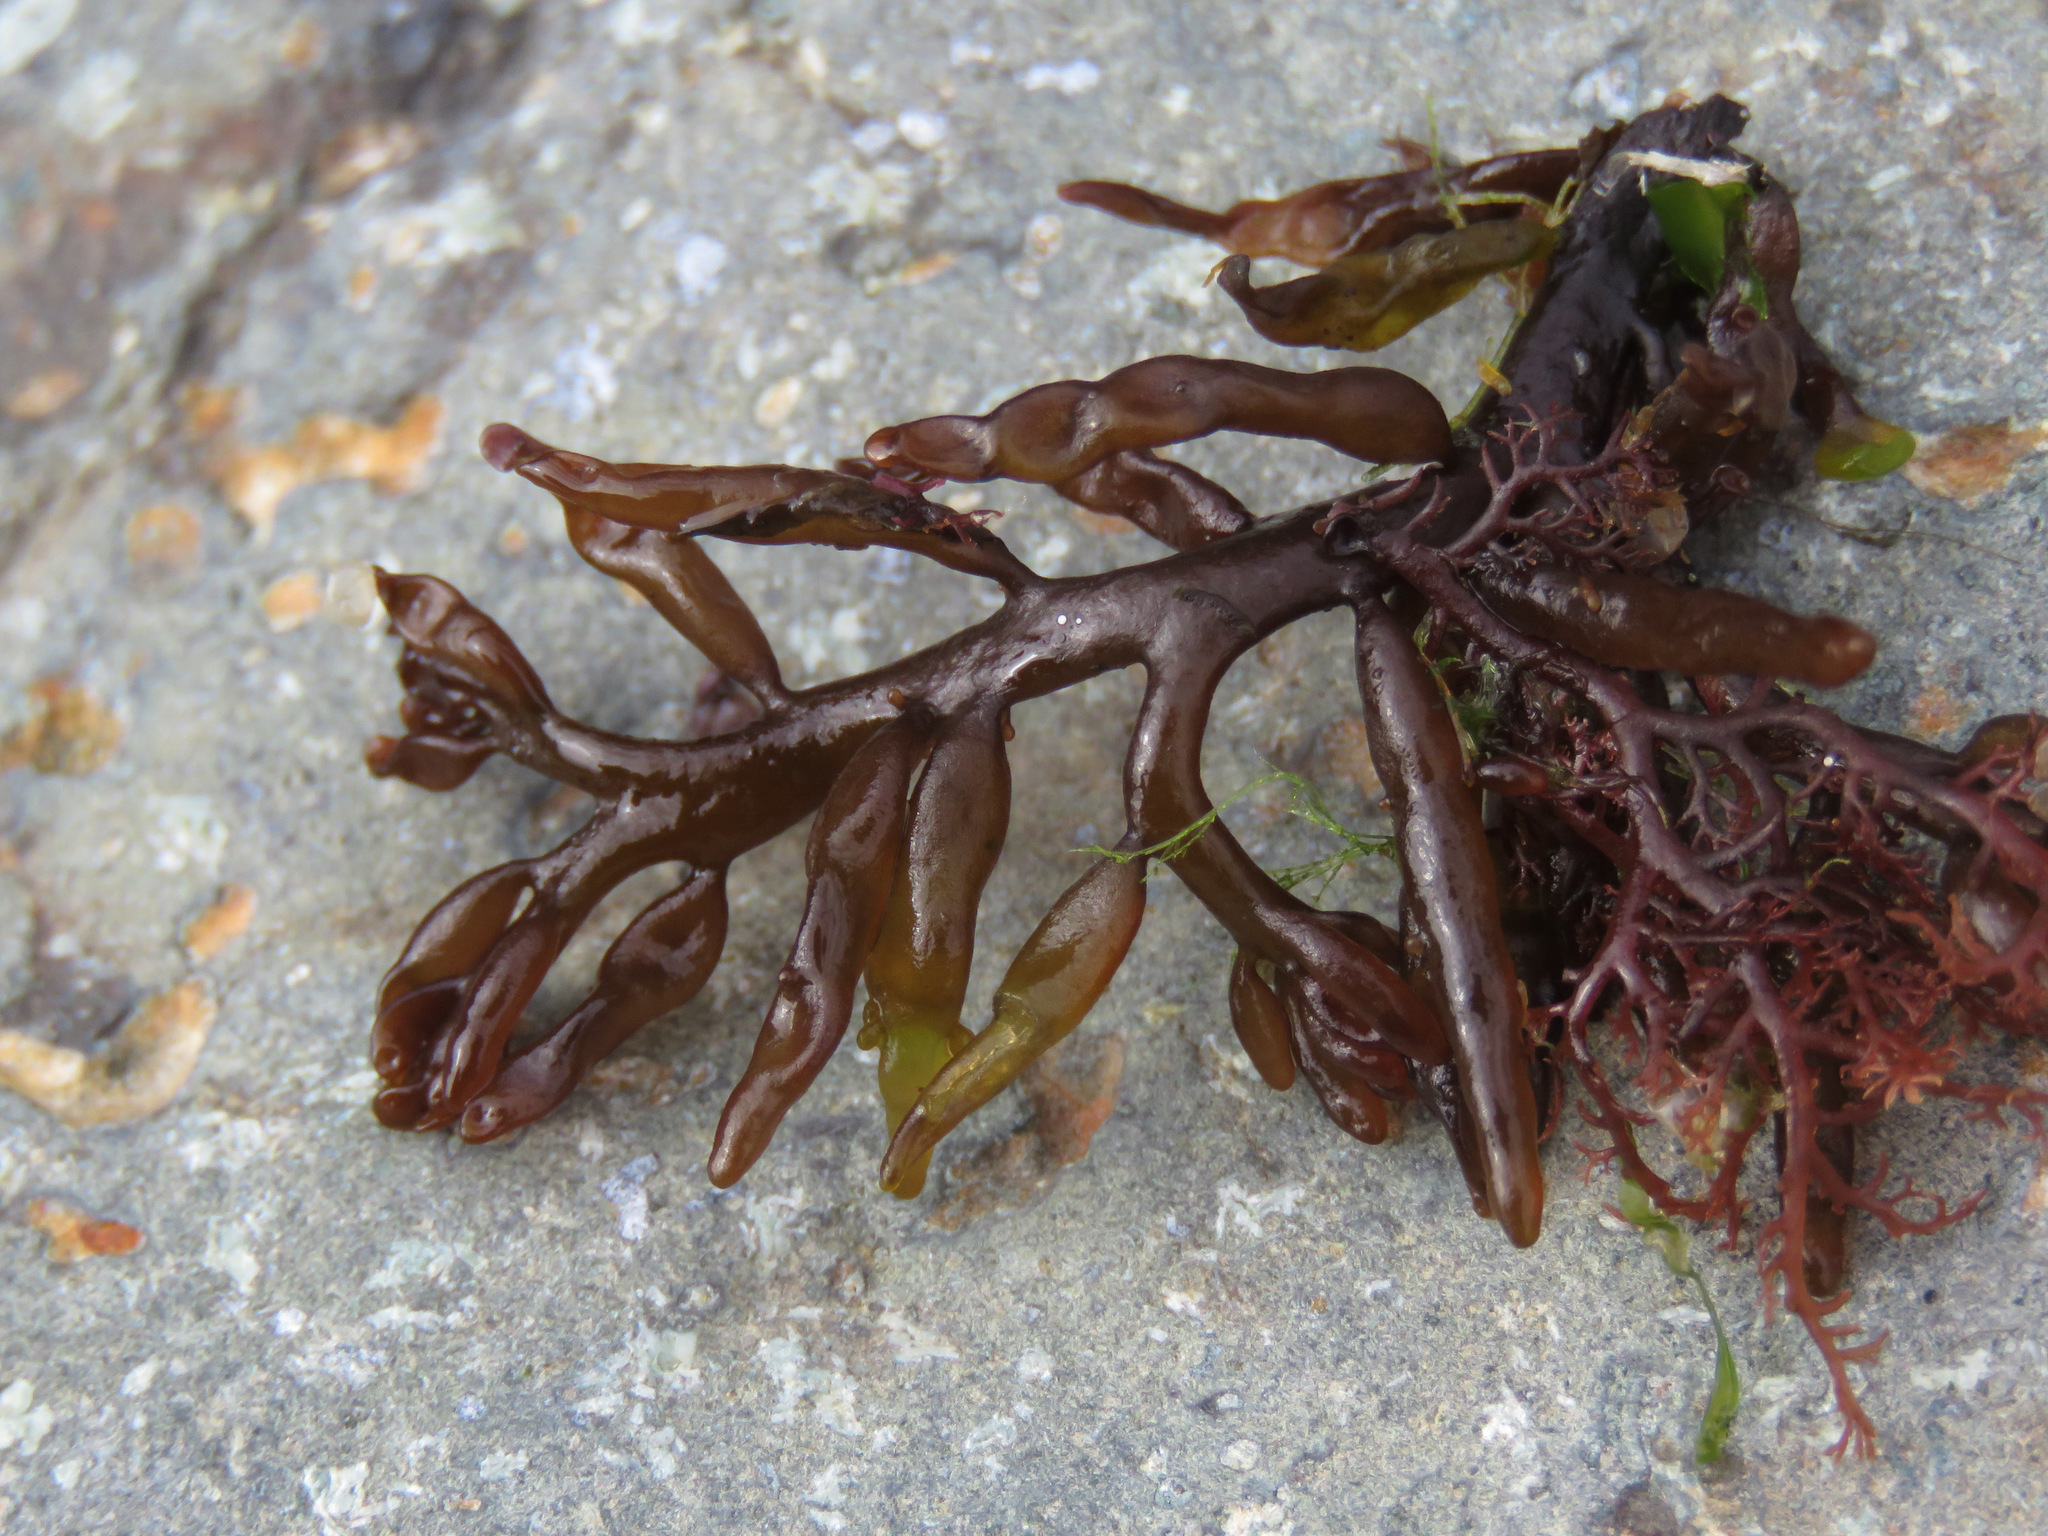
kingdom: Plantae
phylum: Rhodophyta
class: Florideophyceae
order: Rhodymeniales
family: Champiaceae
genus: Neogastroclonium
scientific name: Neogastroclonium subarticulatum
